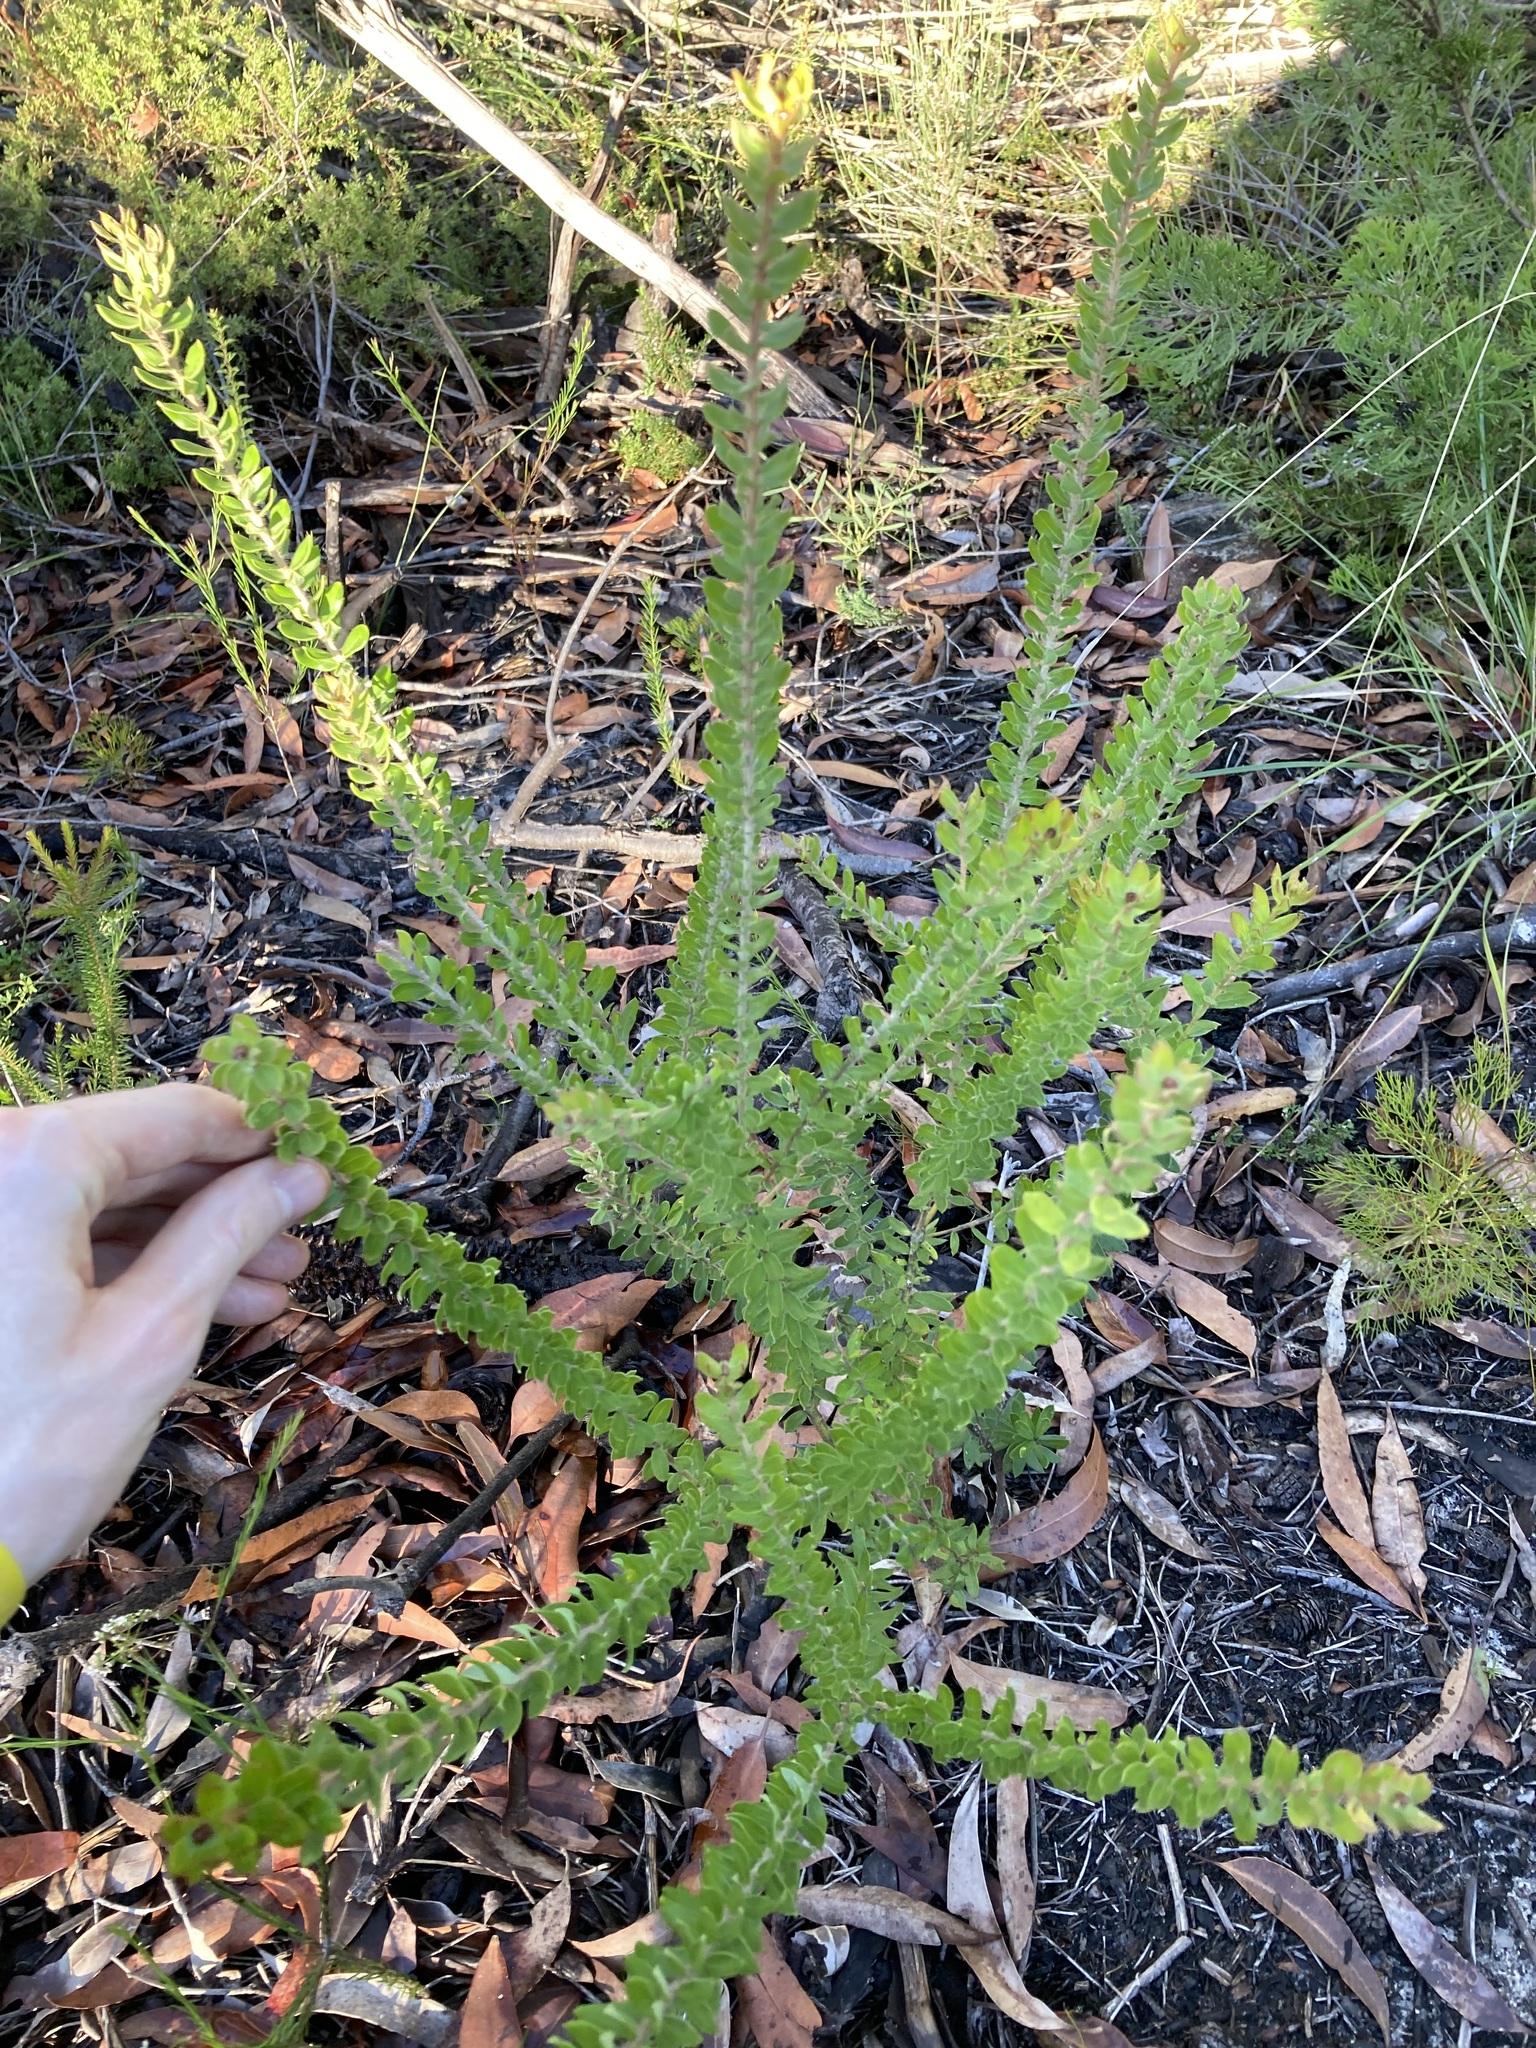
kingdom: Plantae
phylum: Tracheophyta
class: Magnoliopsida
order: Proteales
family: Proteaceae
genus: Grevillea
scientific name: Grevillea buxifolia
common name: Grey spiderflower
